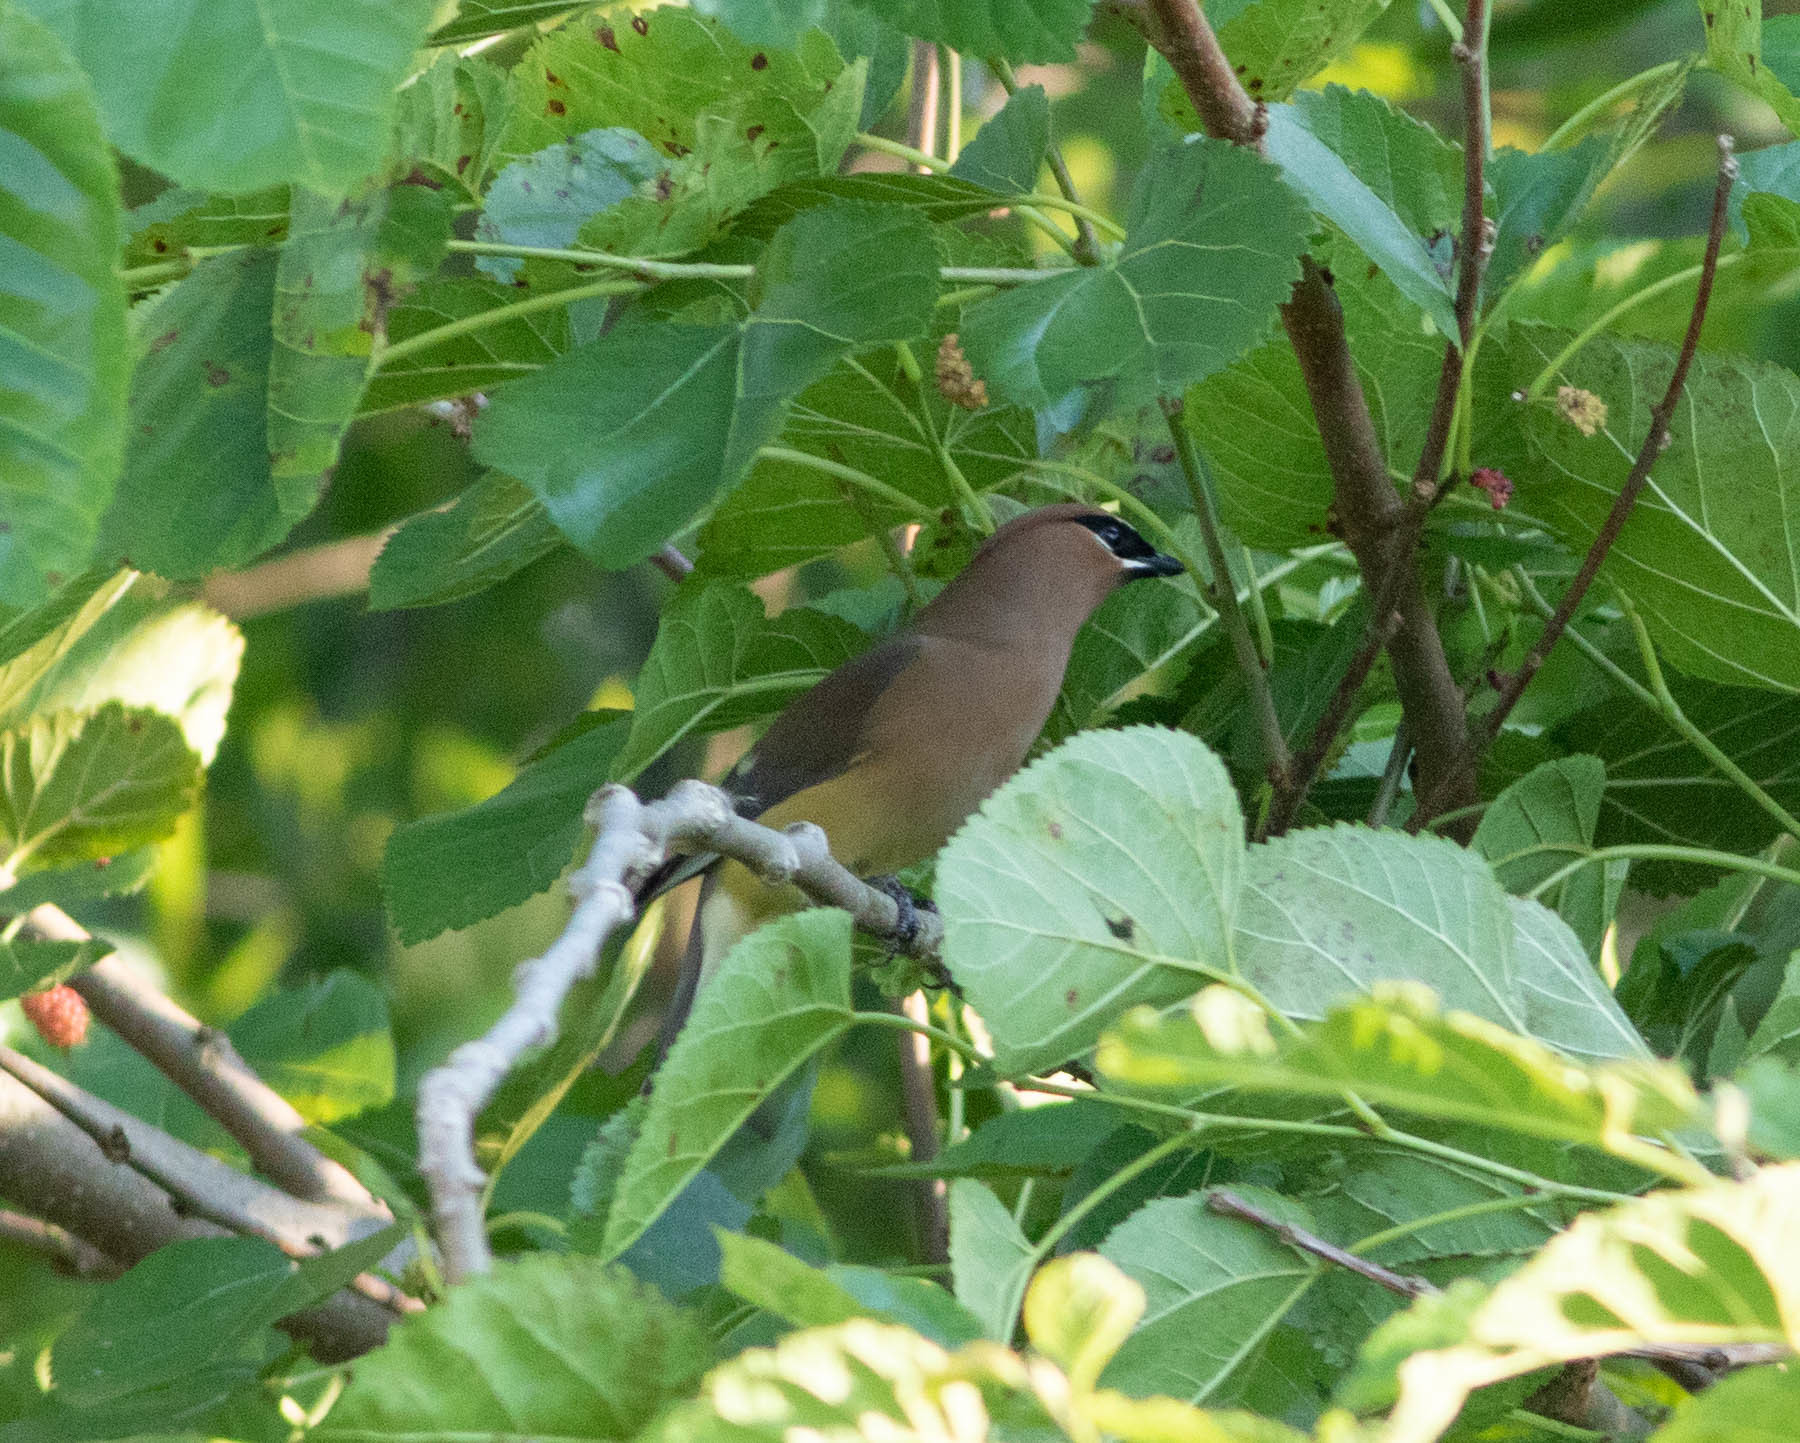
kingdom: Animalia
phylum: Chordata
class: Aves
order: Passeriformes
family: Bombycillidae
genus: Bombycilla
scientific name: Bombycilla cedrorum
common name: Cedar waxwing
